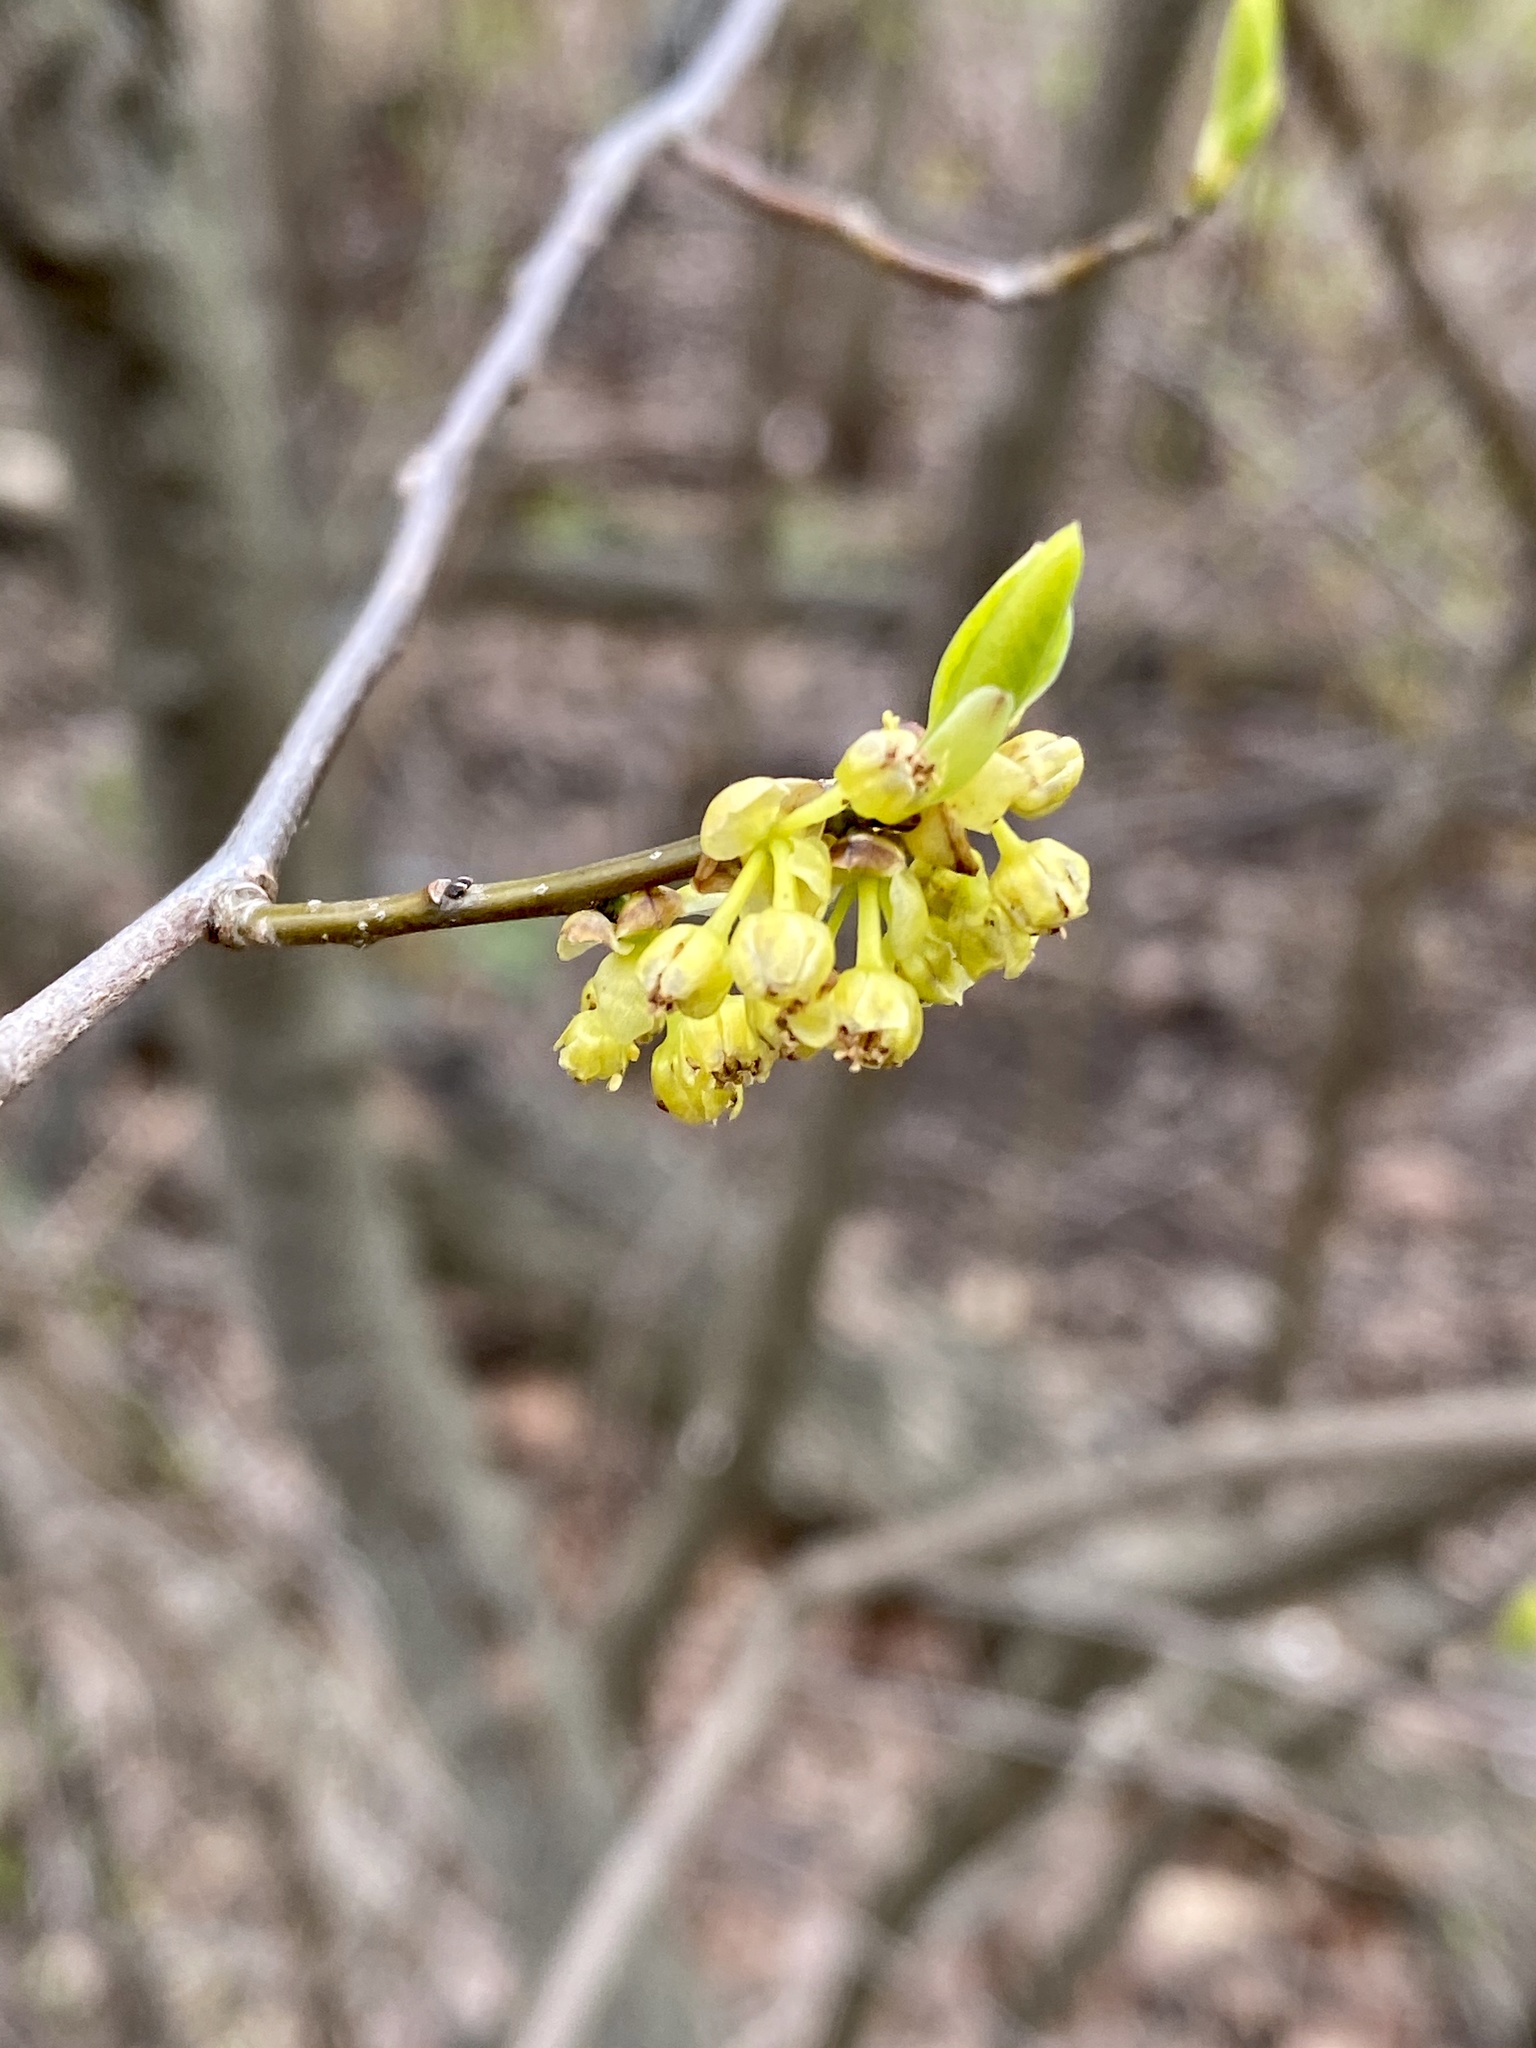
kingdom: Plantae
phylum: Tracheophyta
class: Magnoliopsida
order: Laurales
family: Lauraceae
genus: Lindera
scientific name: Lindera benzoin
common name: Spicebush
